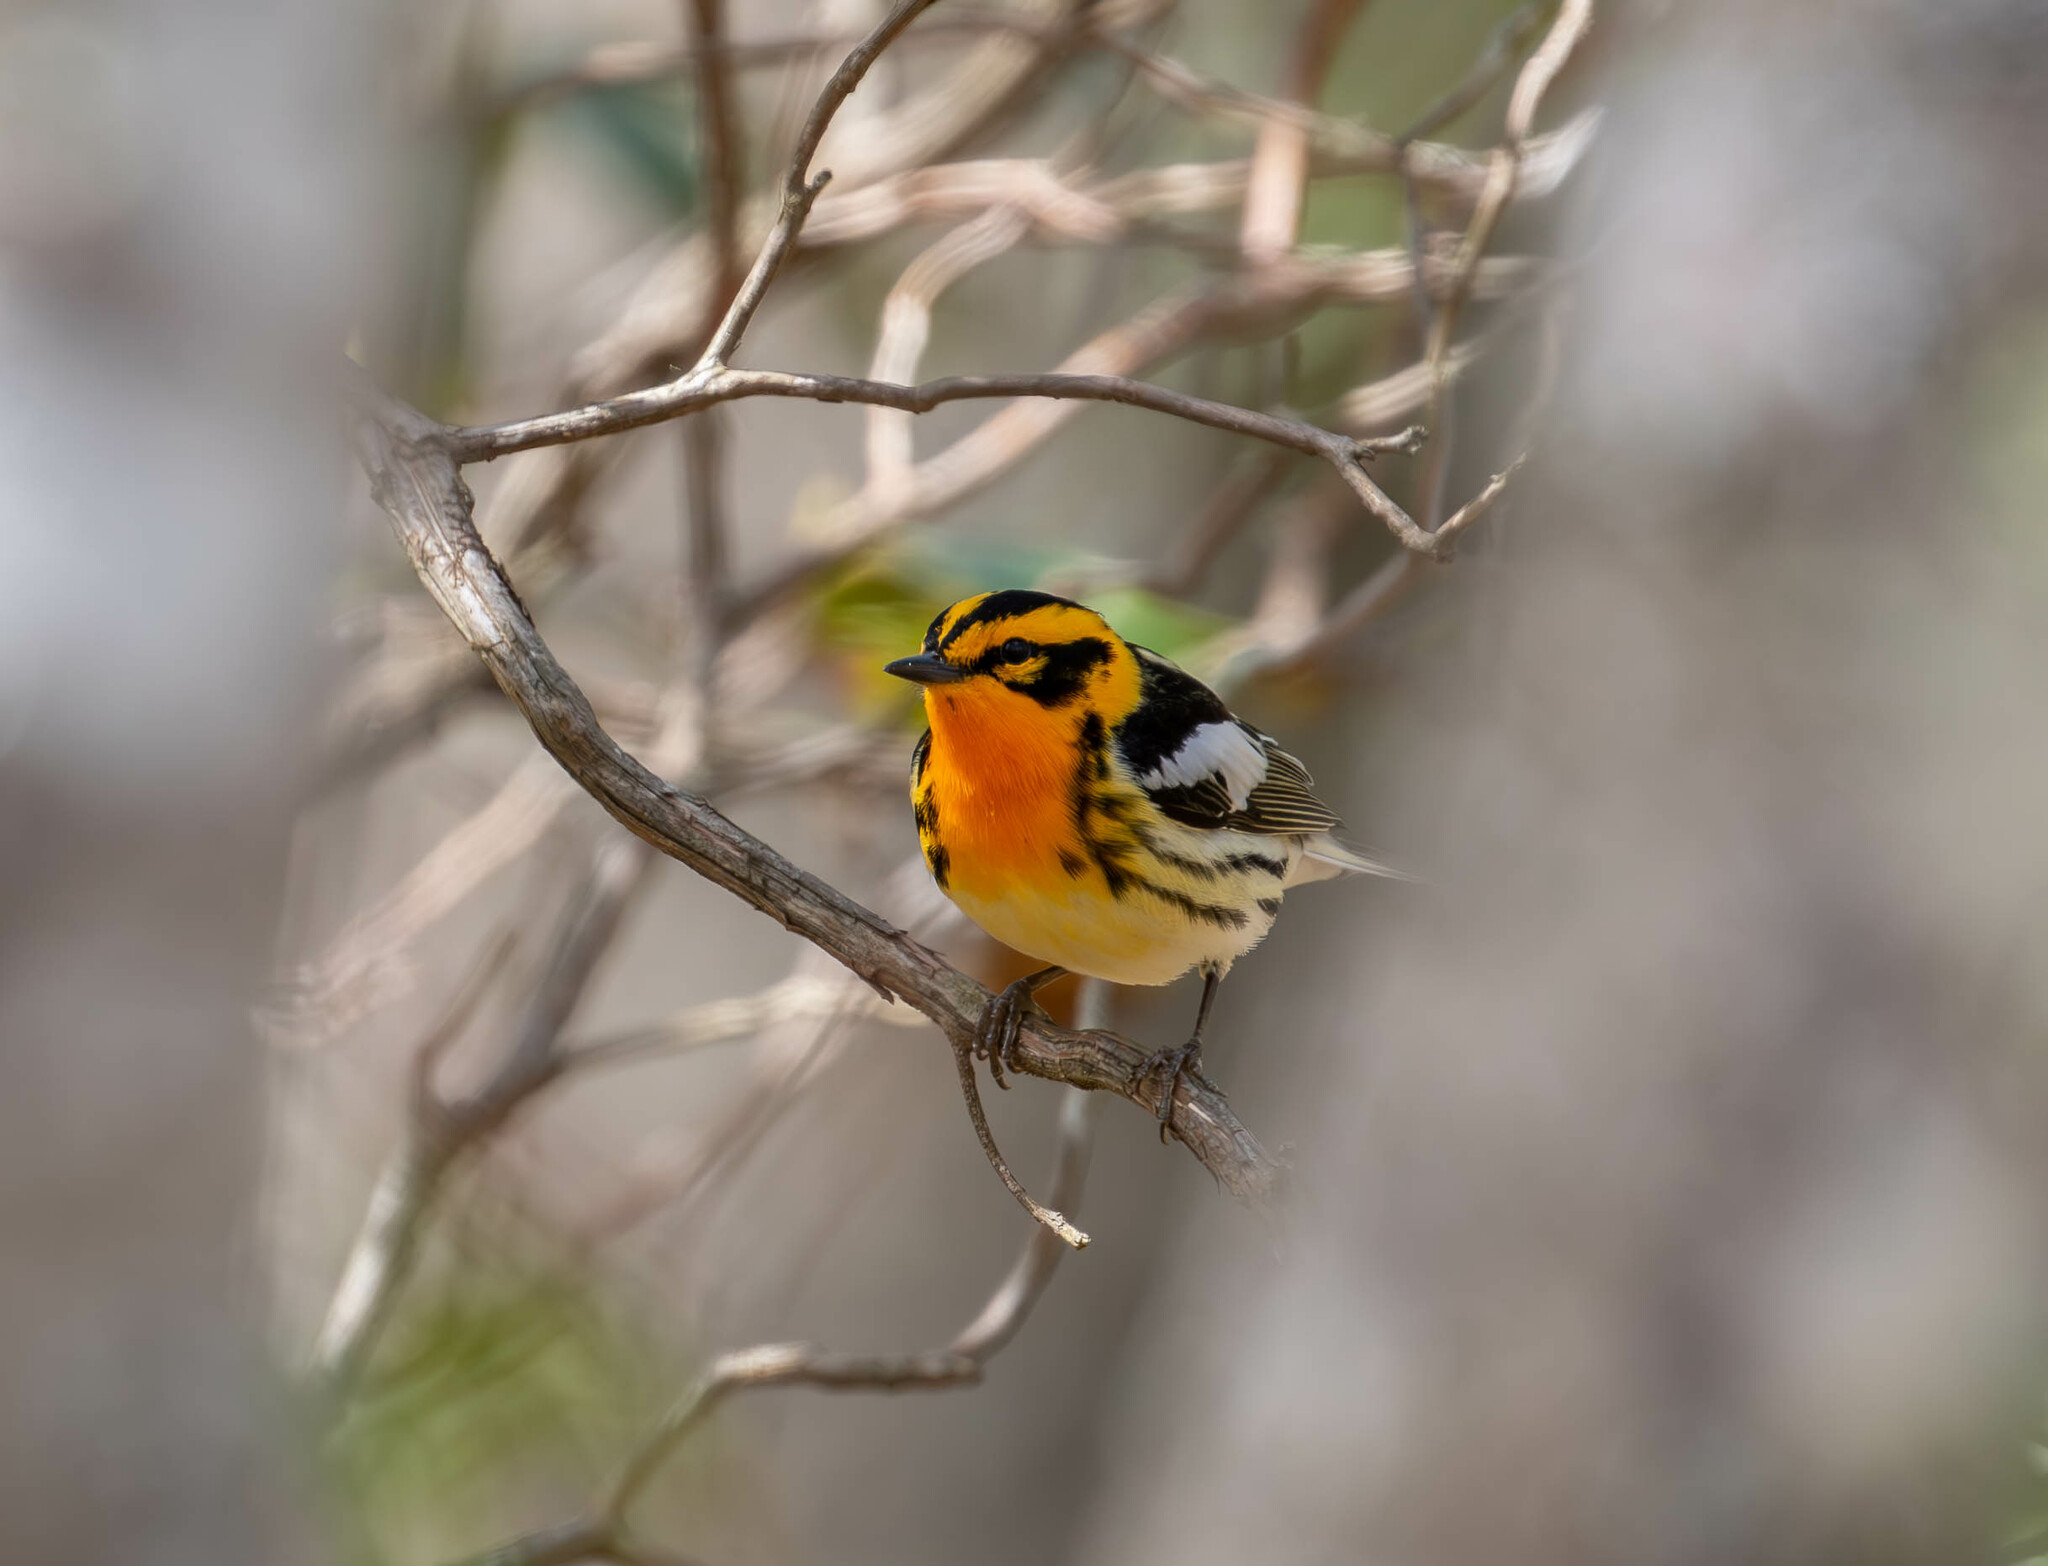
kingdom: Animalia
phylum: Chordata
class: Aves
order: Passeriformes
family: Parulidae
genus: Setophaga
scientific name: Setophaga fusca
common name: Blackburnian warbler
